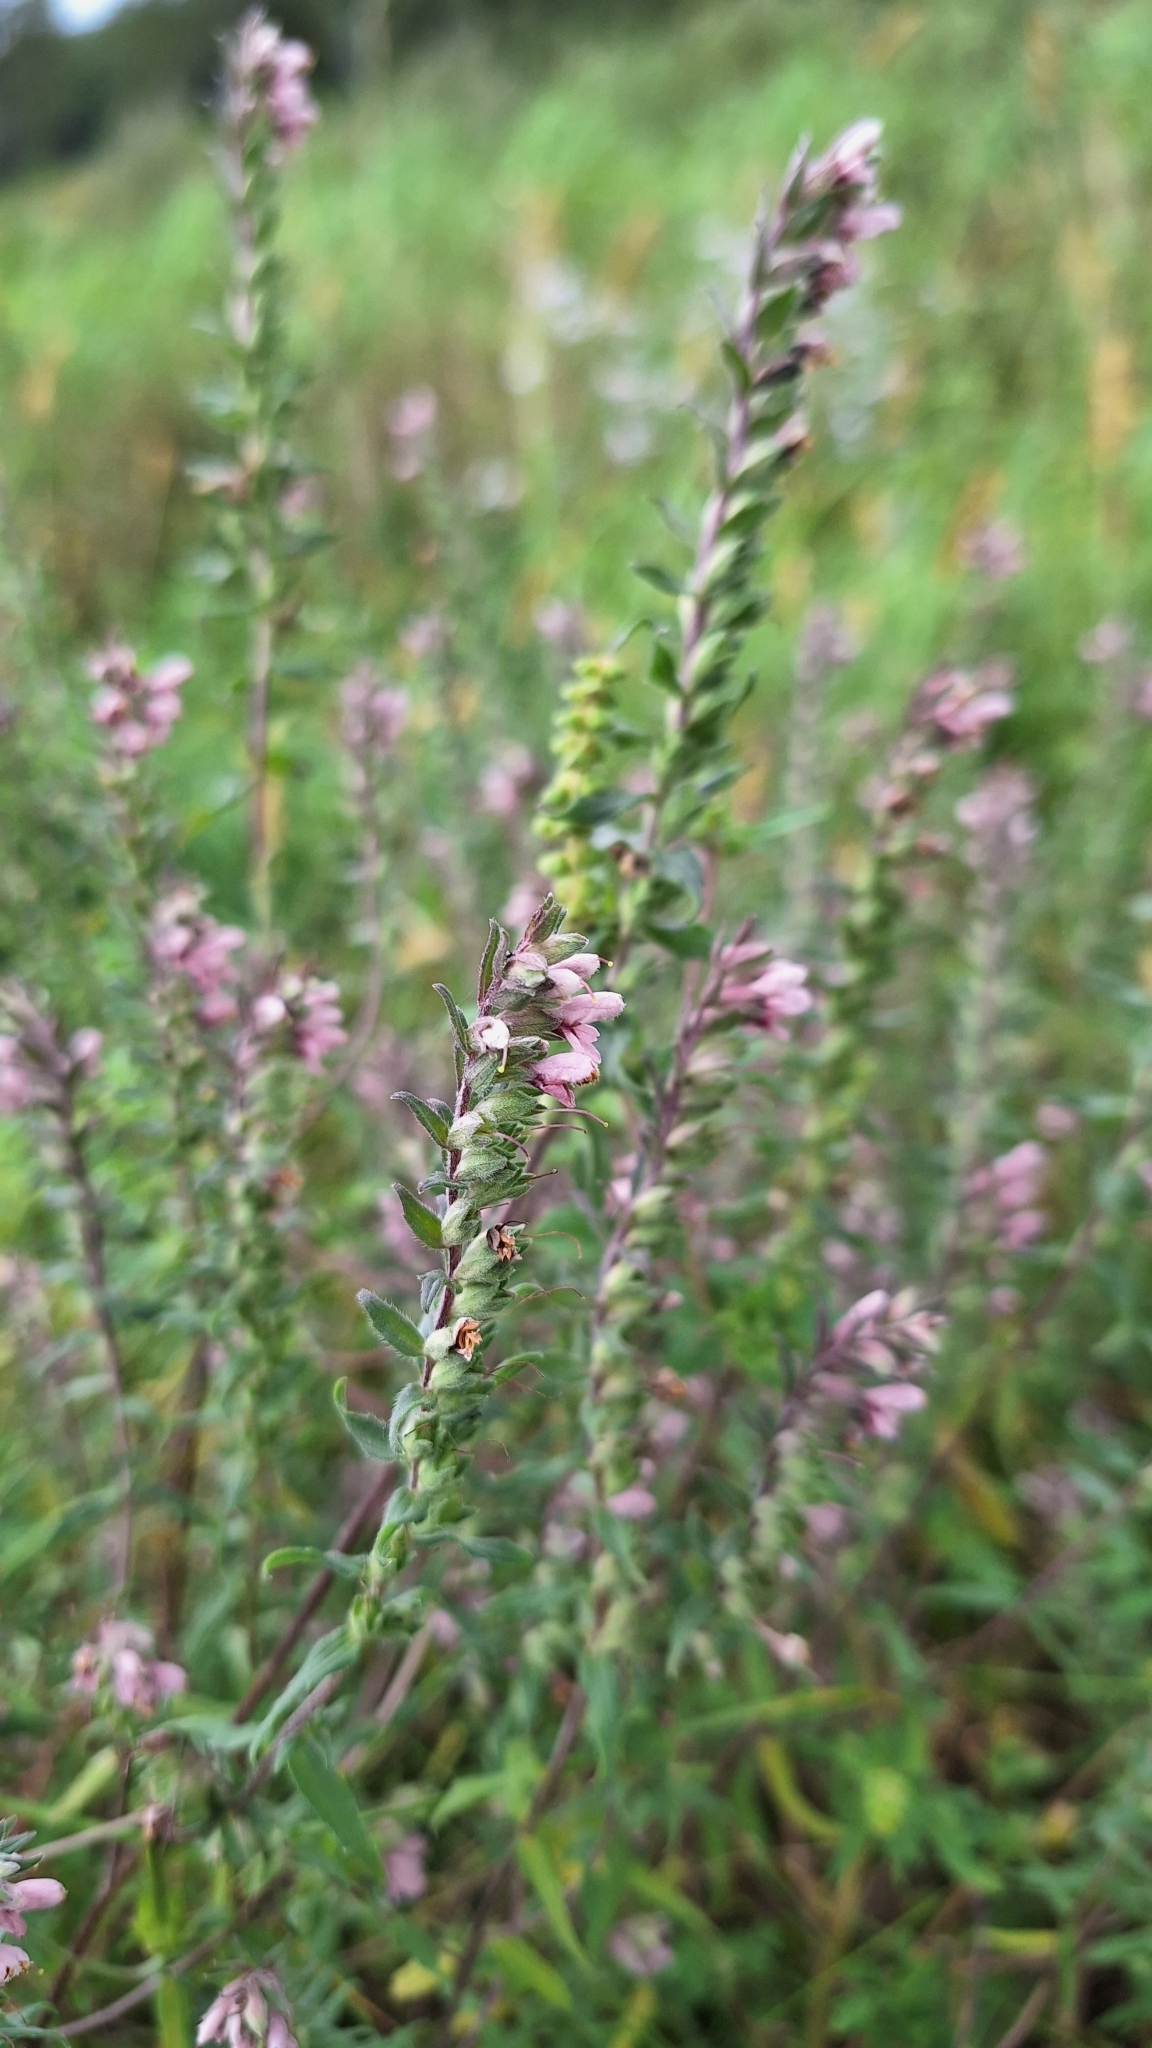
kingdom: Plantae
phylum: Tracheophyta
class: Magnoliopsida
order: Lamiales
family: Orobanchaceae
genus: Odontites
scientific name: Odontites vulgaris
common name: Broomrape
